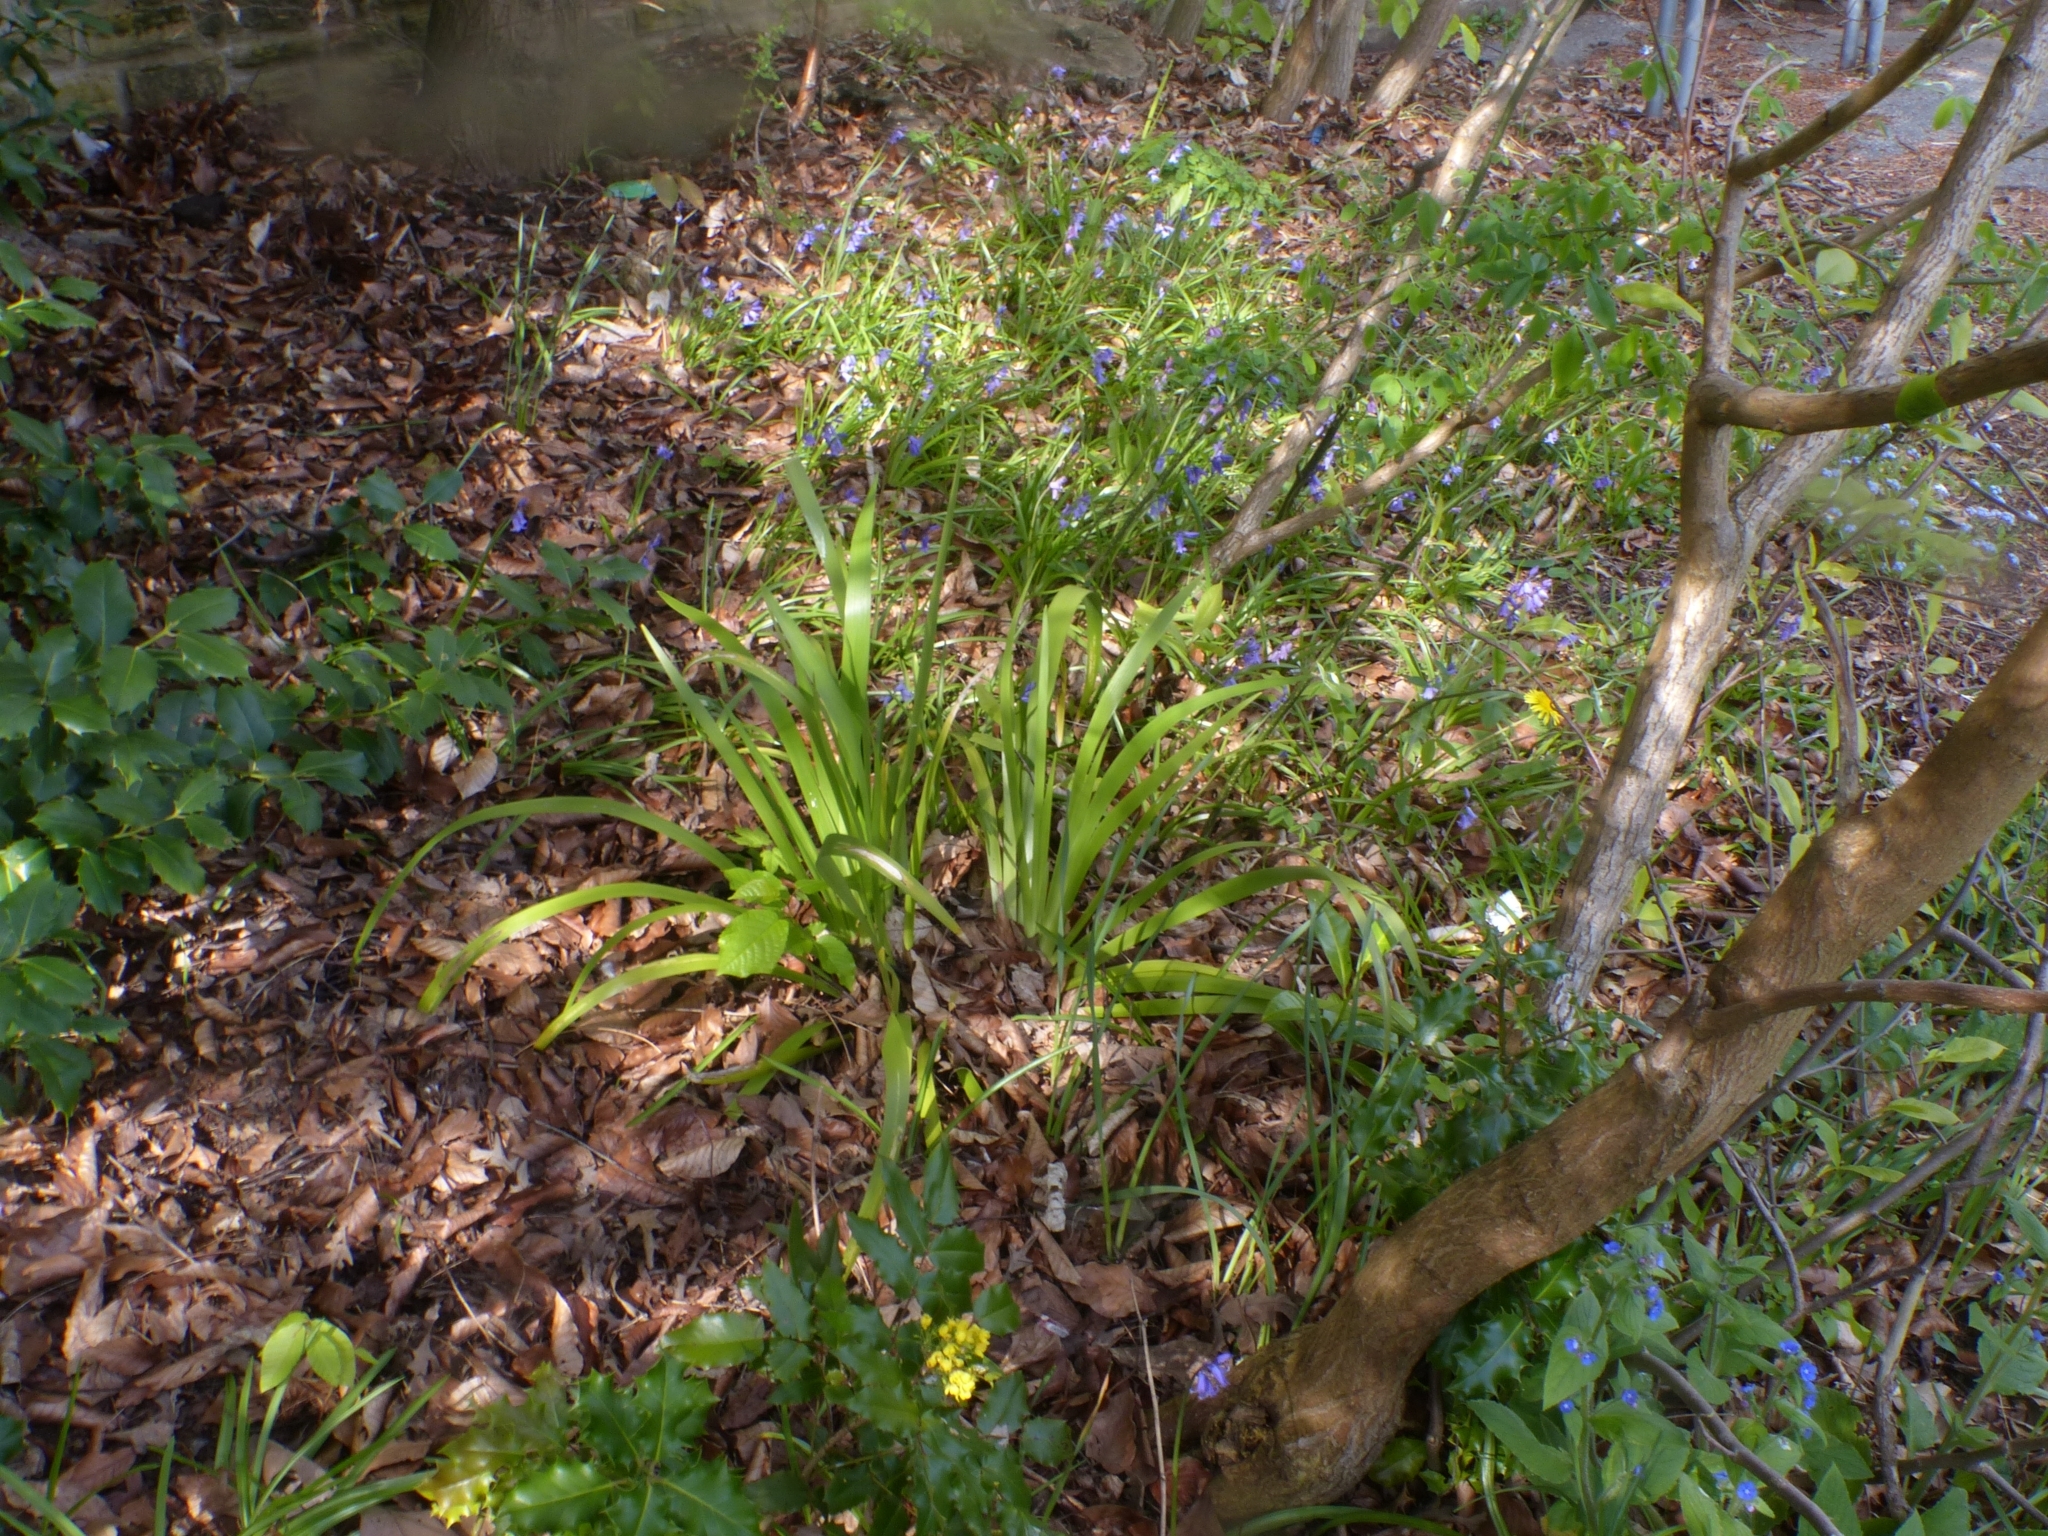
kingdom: Plantae
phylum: Tracheophyta
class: Liliopsida
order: Asparagales
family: Iridaceae
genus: Iris
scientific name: Iris foetidissima
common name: Stinking iris
